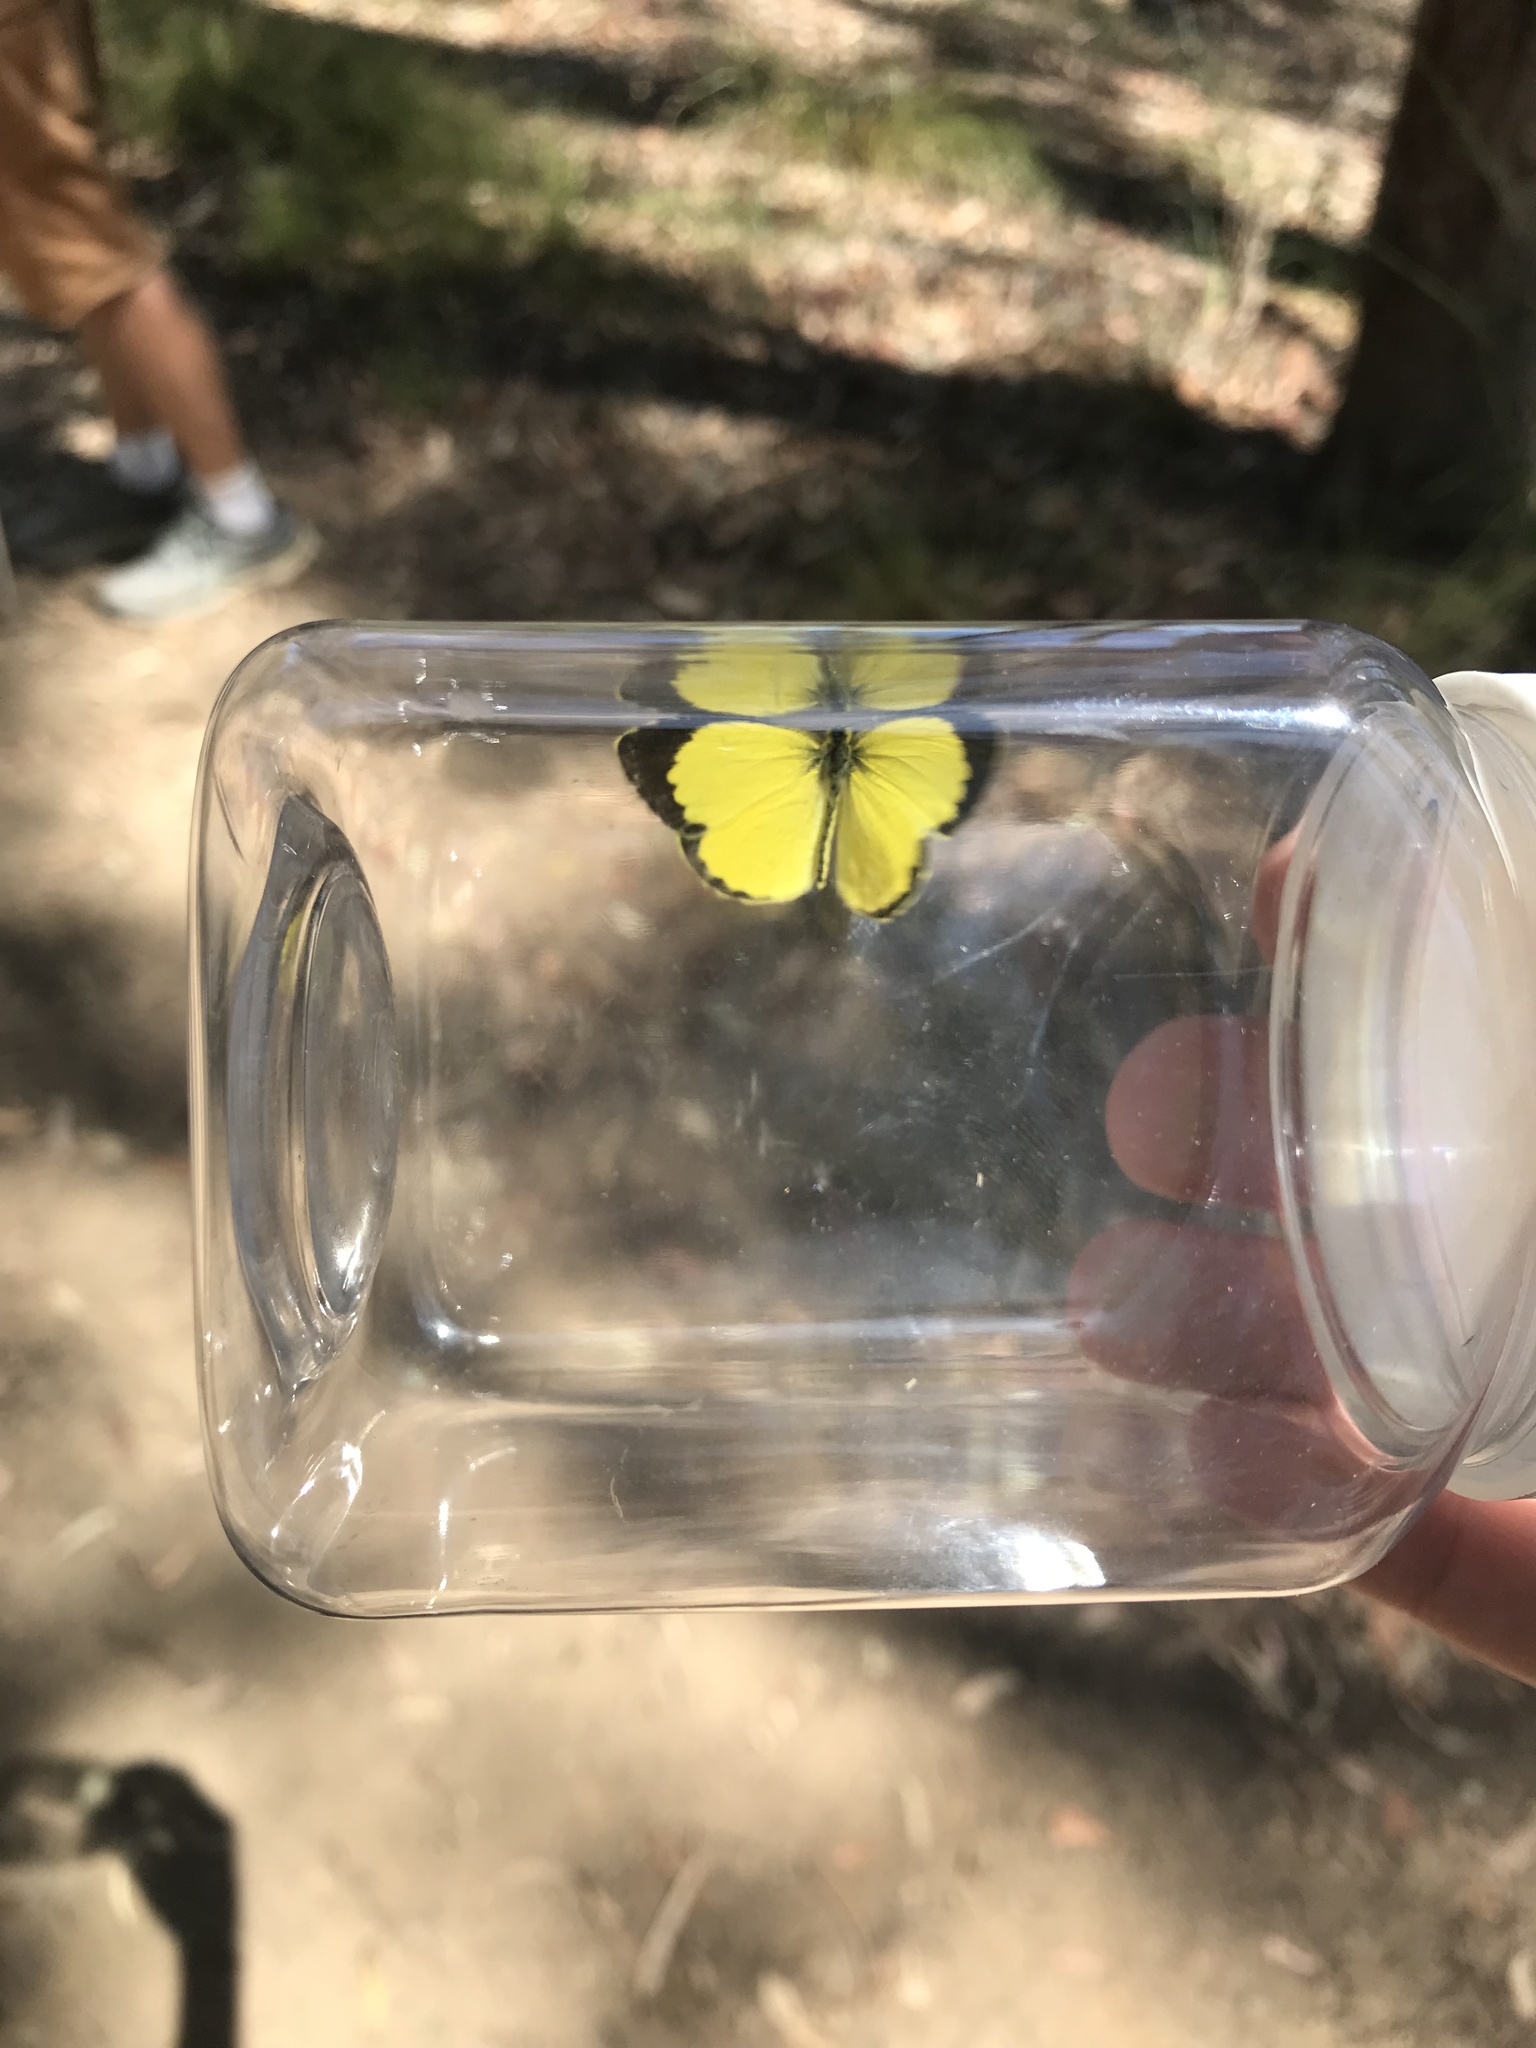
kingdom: Animalia
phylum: Arthropoda
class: Insecta
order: Lepidoptera
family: Pieridae
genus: Eurema
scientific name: Eurema brigitta
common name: Small grass yellow
